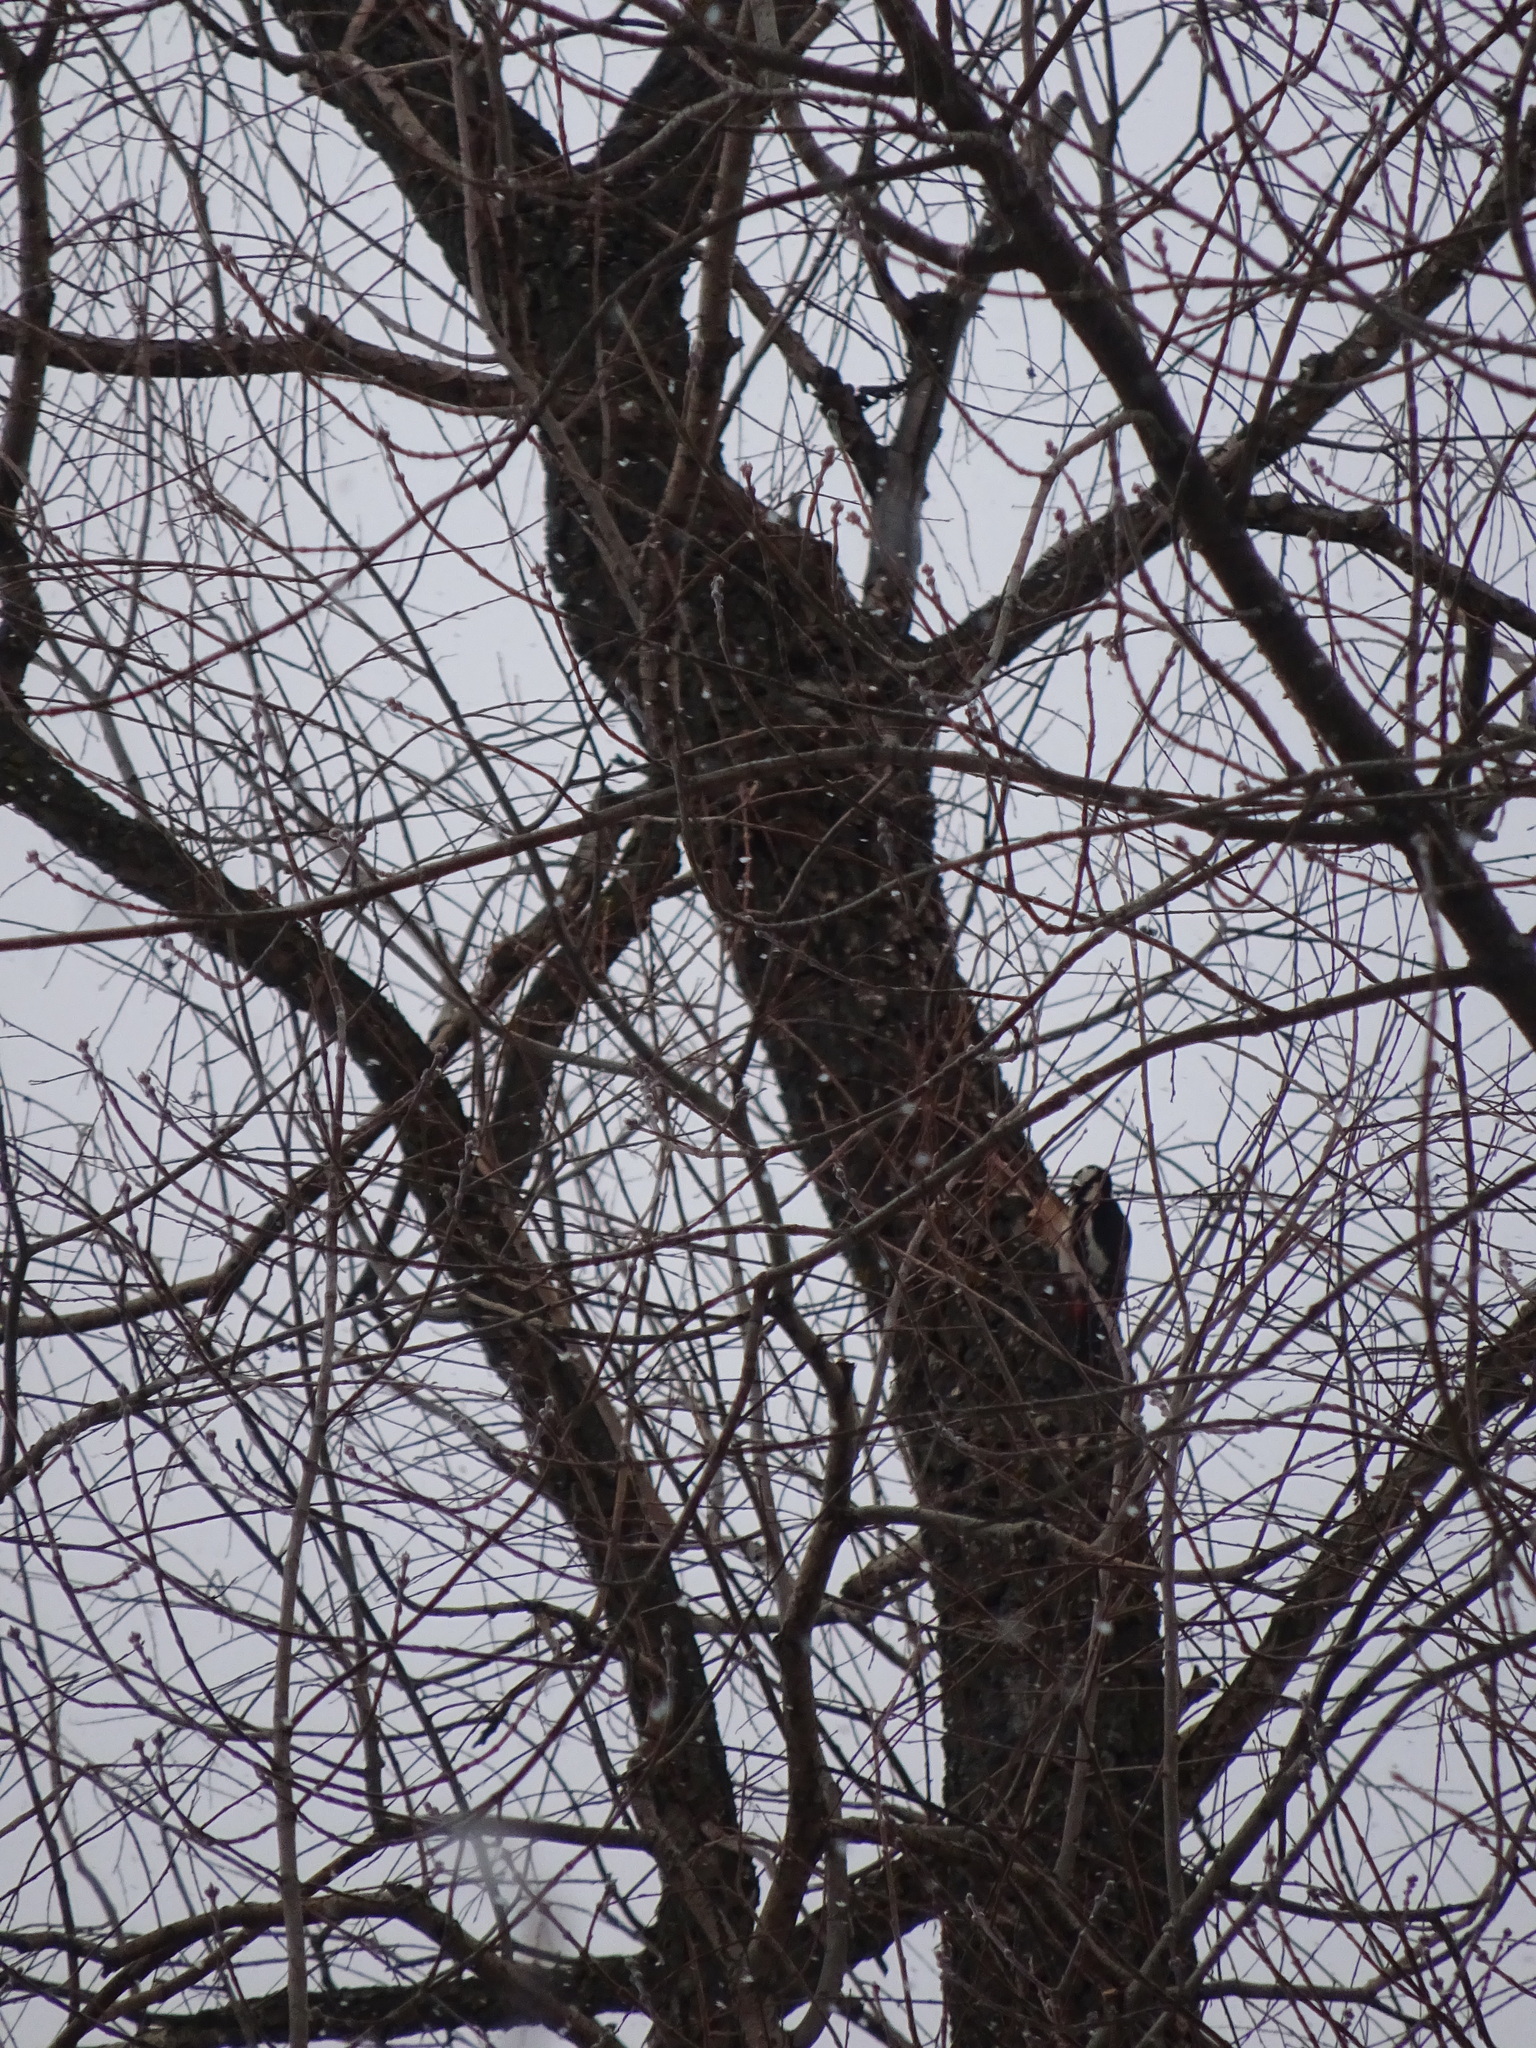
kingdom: Animalia
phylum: Chordata
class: Aves
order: Piciformes
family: Picidae
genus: Dendrocopos
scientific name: Dendrocopos major
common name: Great spotted woodpecker
